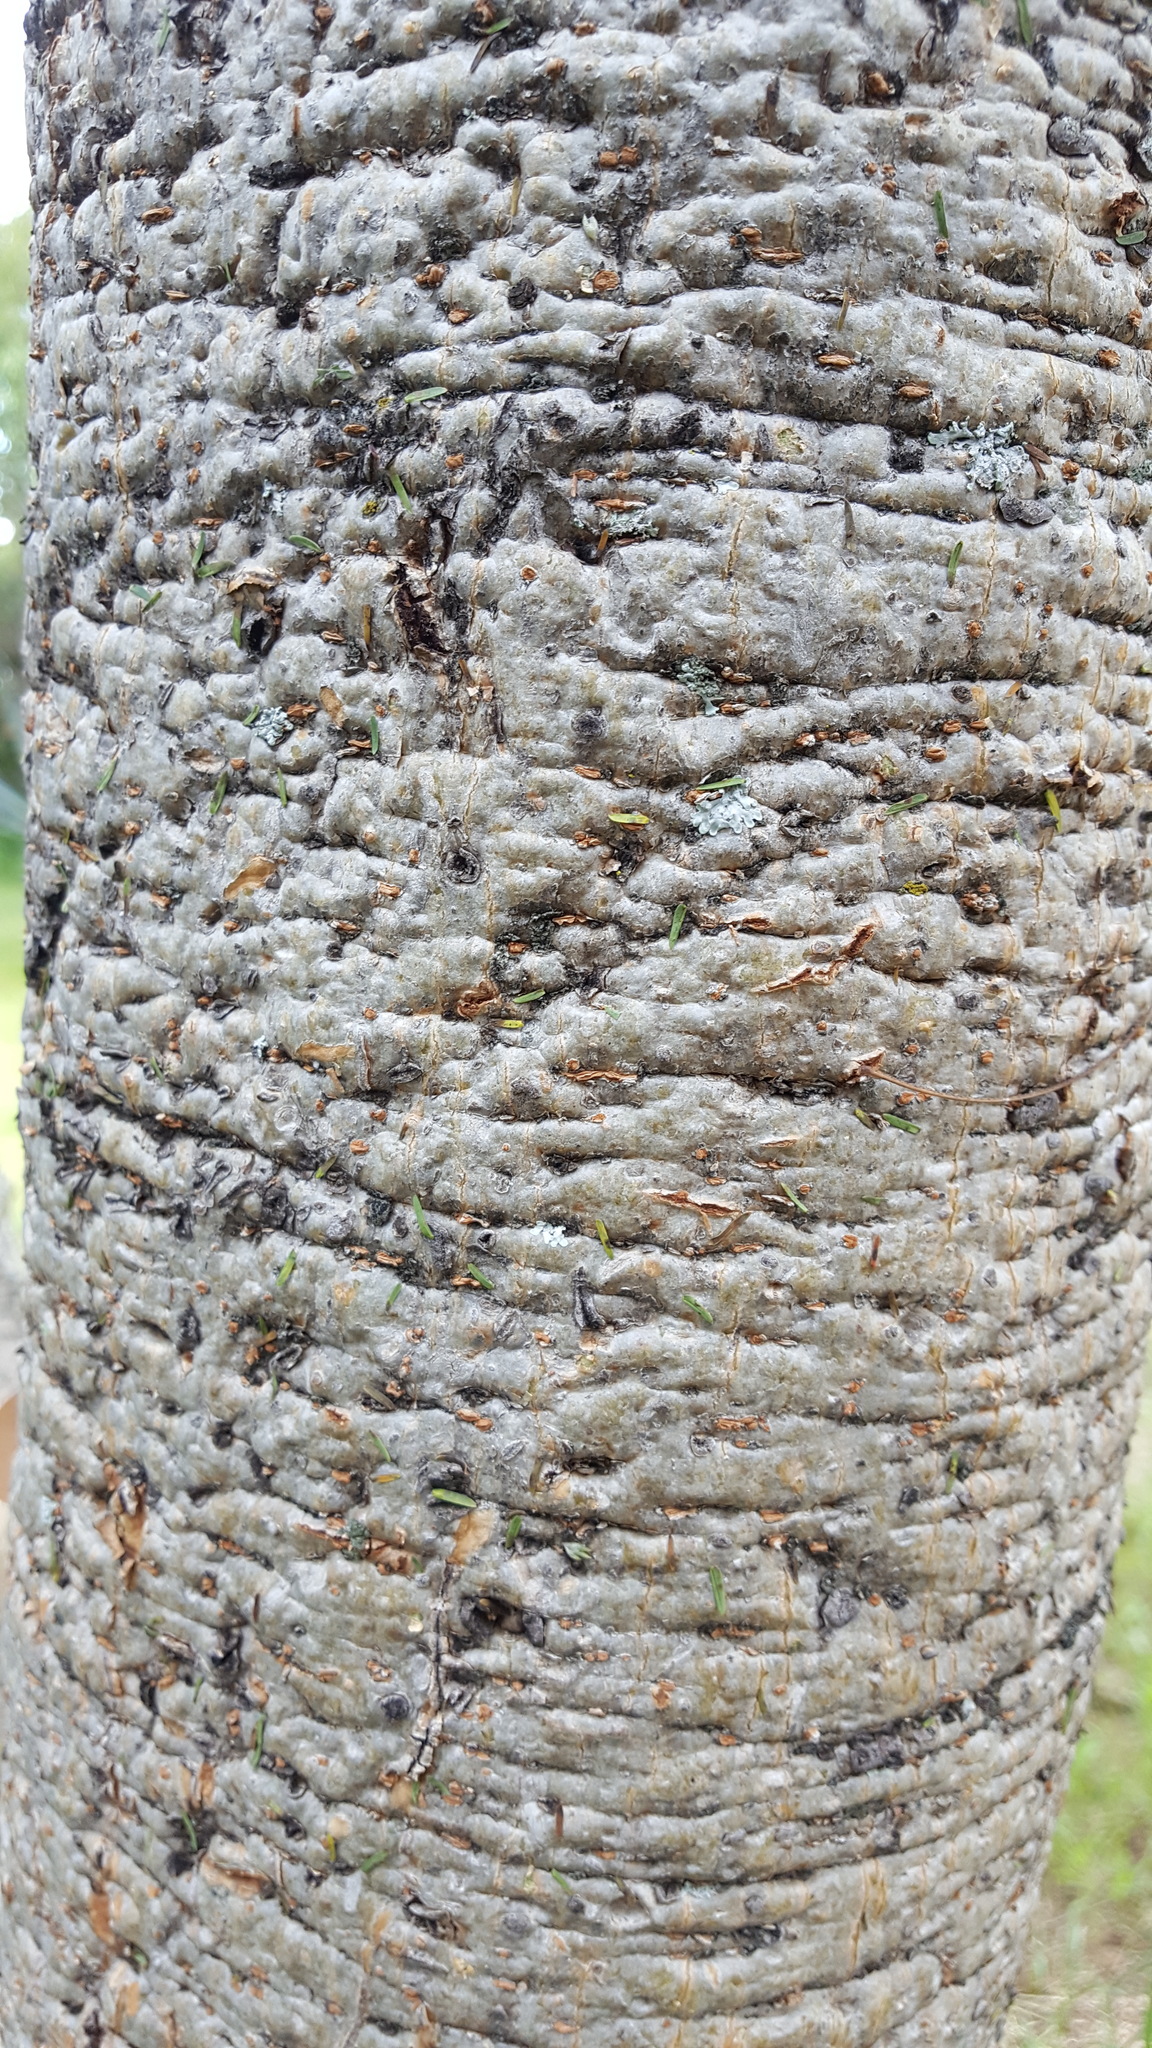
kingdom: Plantae
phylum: Tracheophyta
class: Magnoliopsida
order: Fabales
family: Fabaceae
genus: Leucaena
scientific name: Leucaena esculenta
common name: Guaje
